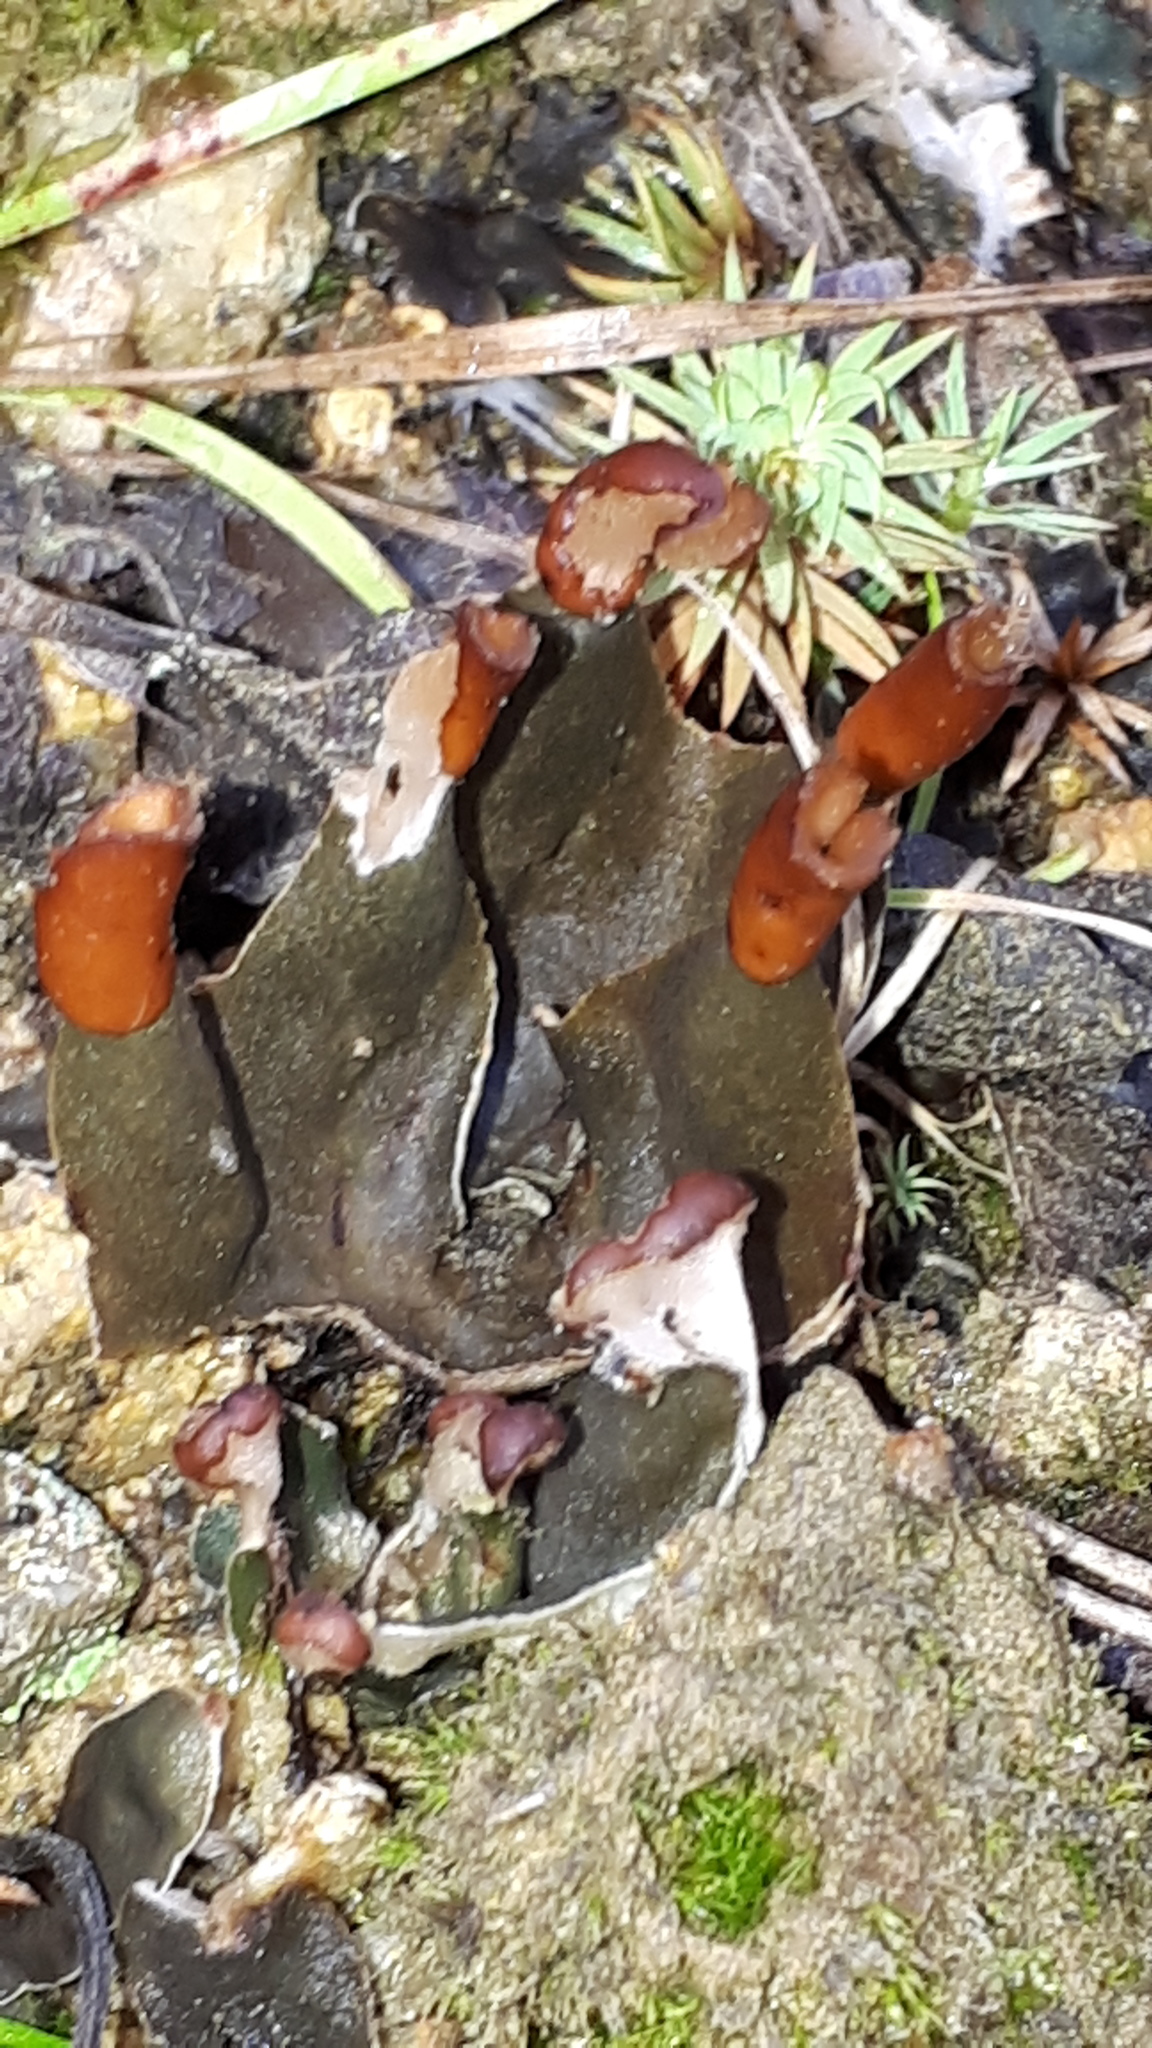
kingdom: Fungi
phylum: Ascomycota
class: Lecanoromycetes
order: Peltigerales
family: Peltigeraceae
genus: Peltigera
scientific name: Peltigera didactyla
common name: Alternating dog lichen
